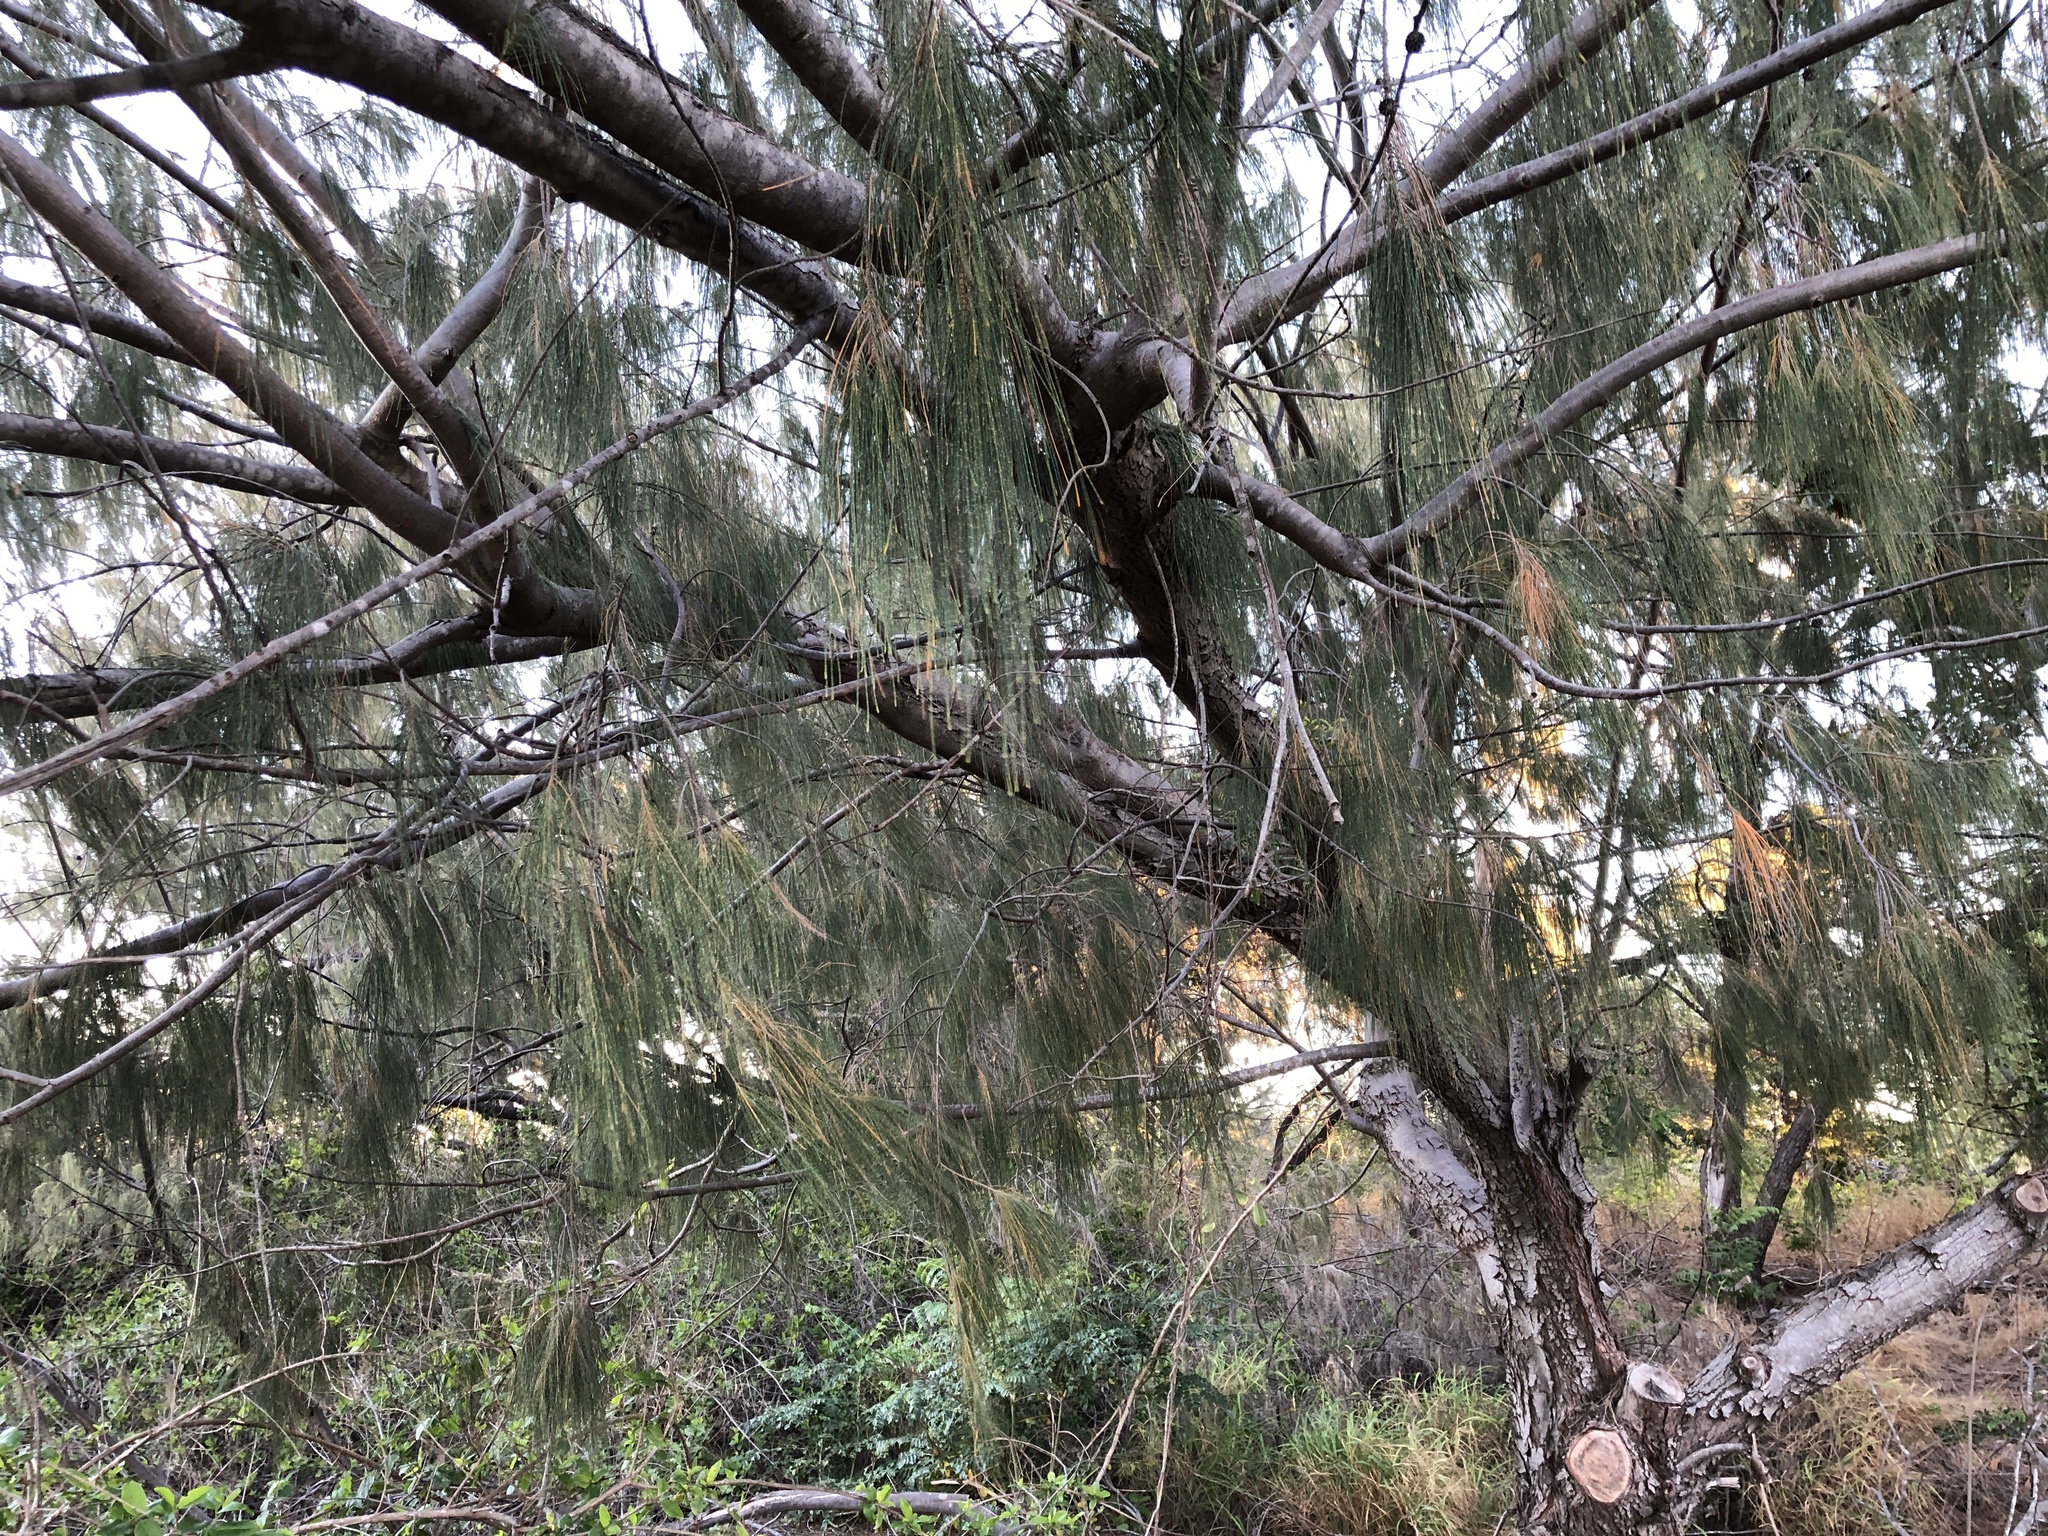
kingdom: Plantae
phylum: Tracheophyta
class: Magnoliopsida
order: Fagales
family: Casuarinaceae
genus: Casuarina
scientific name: Casuarina equisetifolia
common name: Beach sheoak
